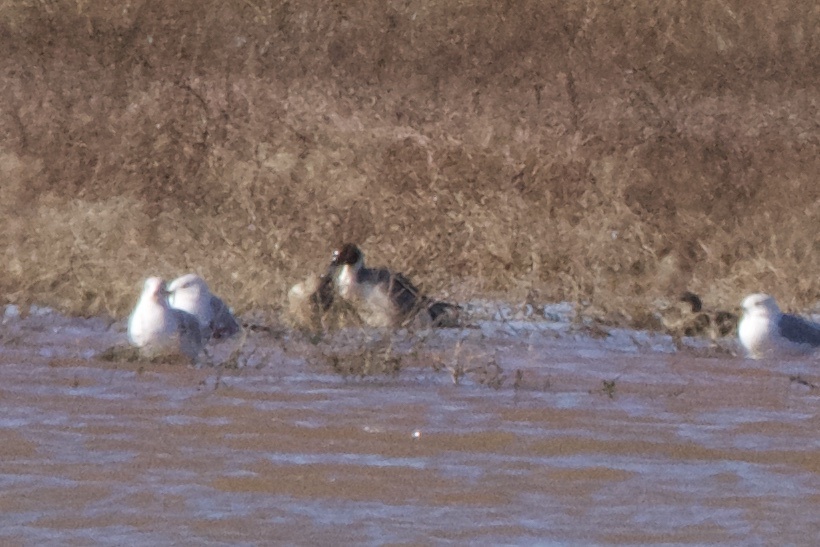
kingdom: Animalia
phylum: Chordata
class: Aves
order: Anseriformes
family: Anatidae
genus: Anas
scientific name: Anas acuta
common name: Northern pintail
